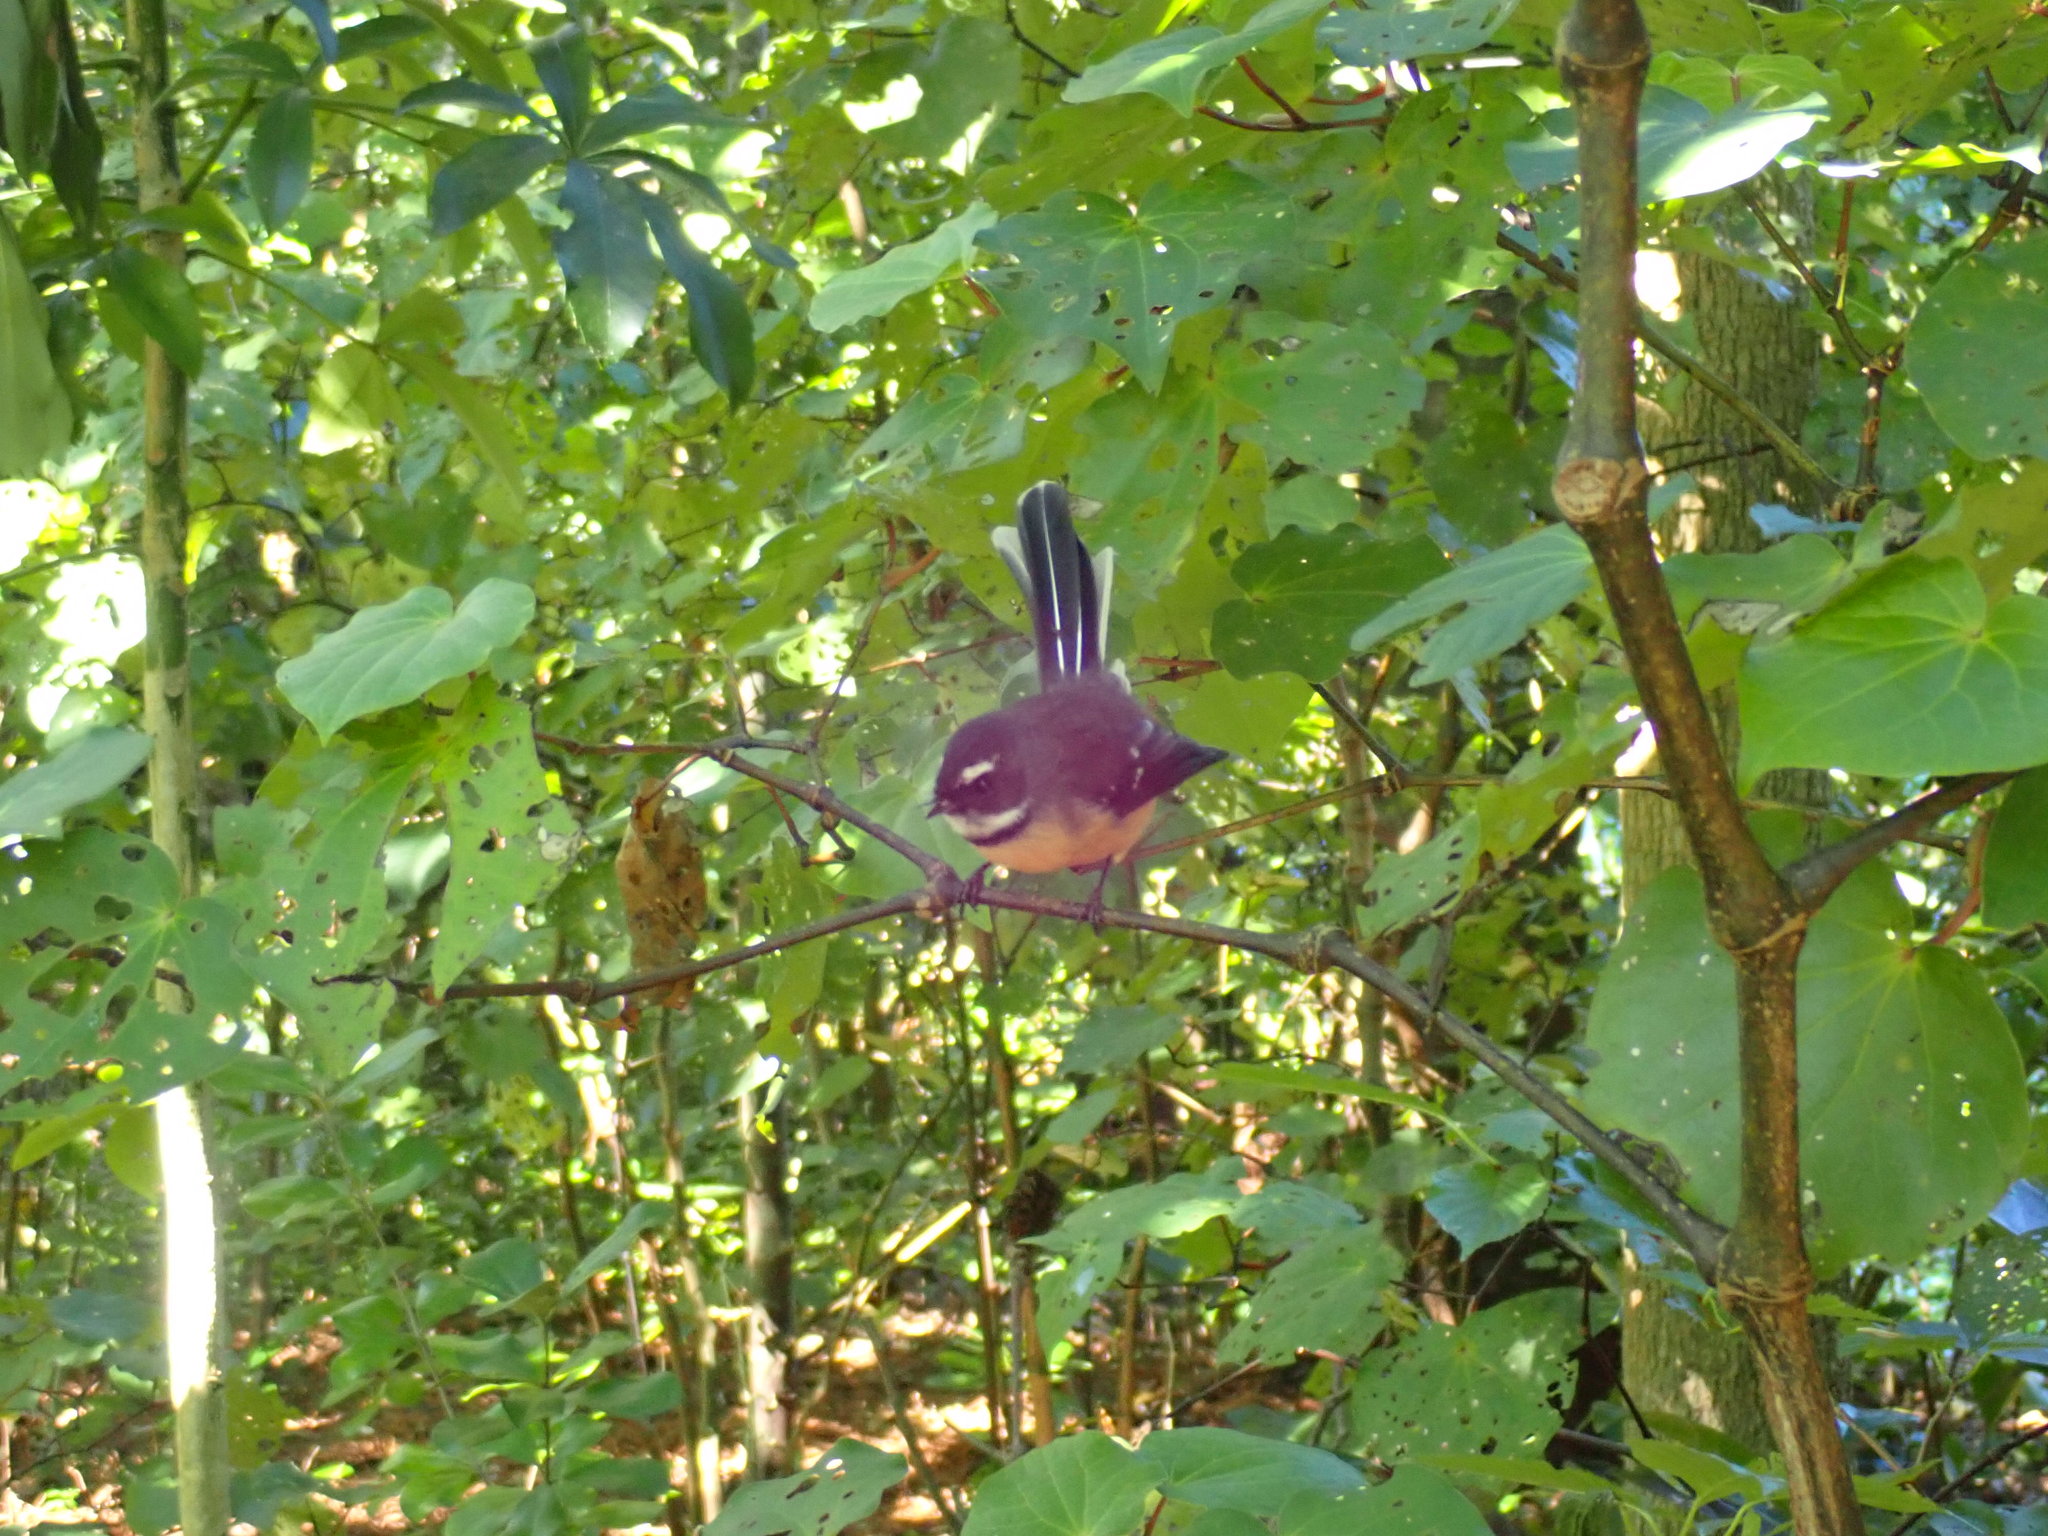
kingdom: Animalia
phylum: Chordata
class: Aves
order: Passeriformes
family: Rhipiduridae
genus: Rhipidura
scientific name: Rhipidura fuliginosa
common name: New zealand fantail
